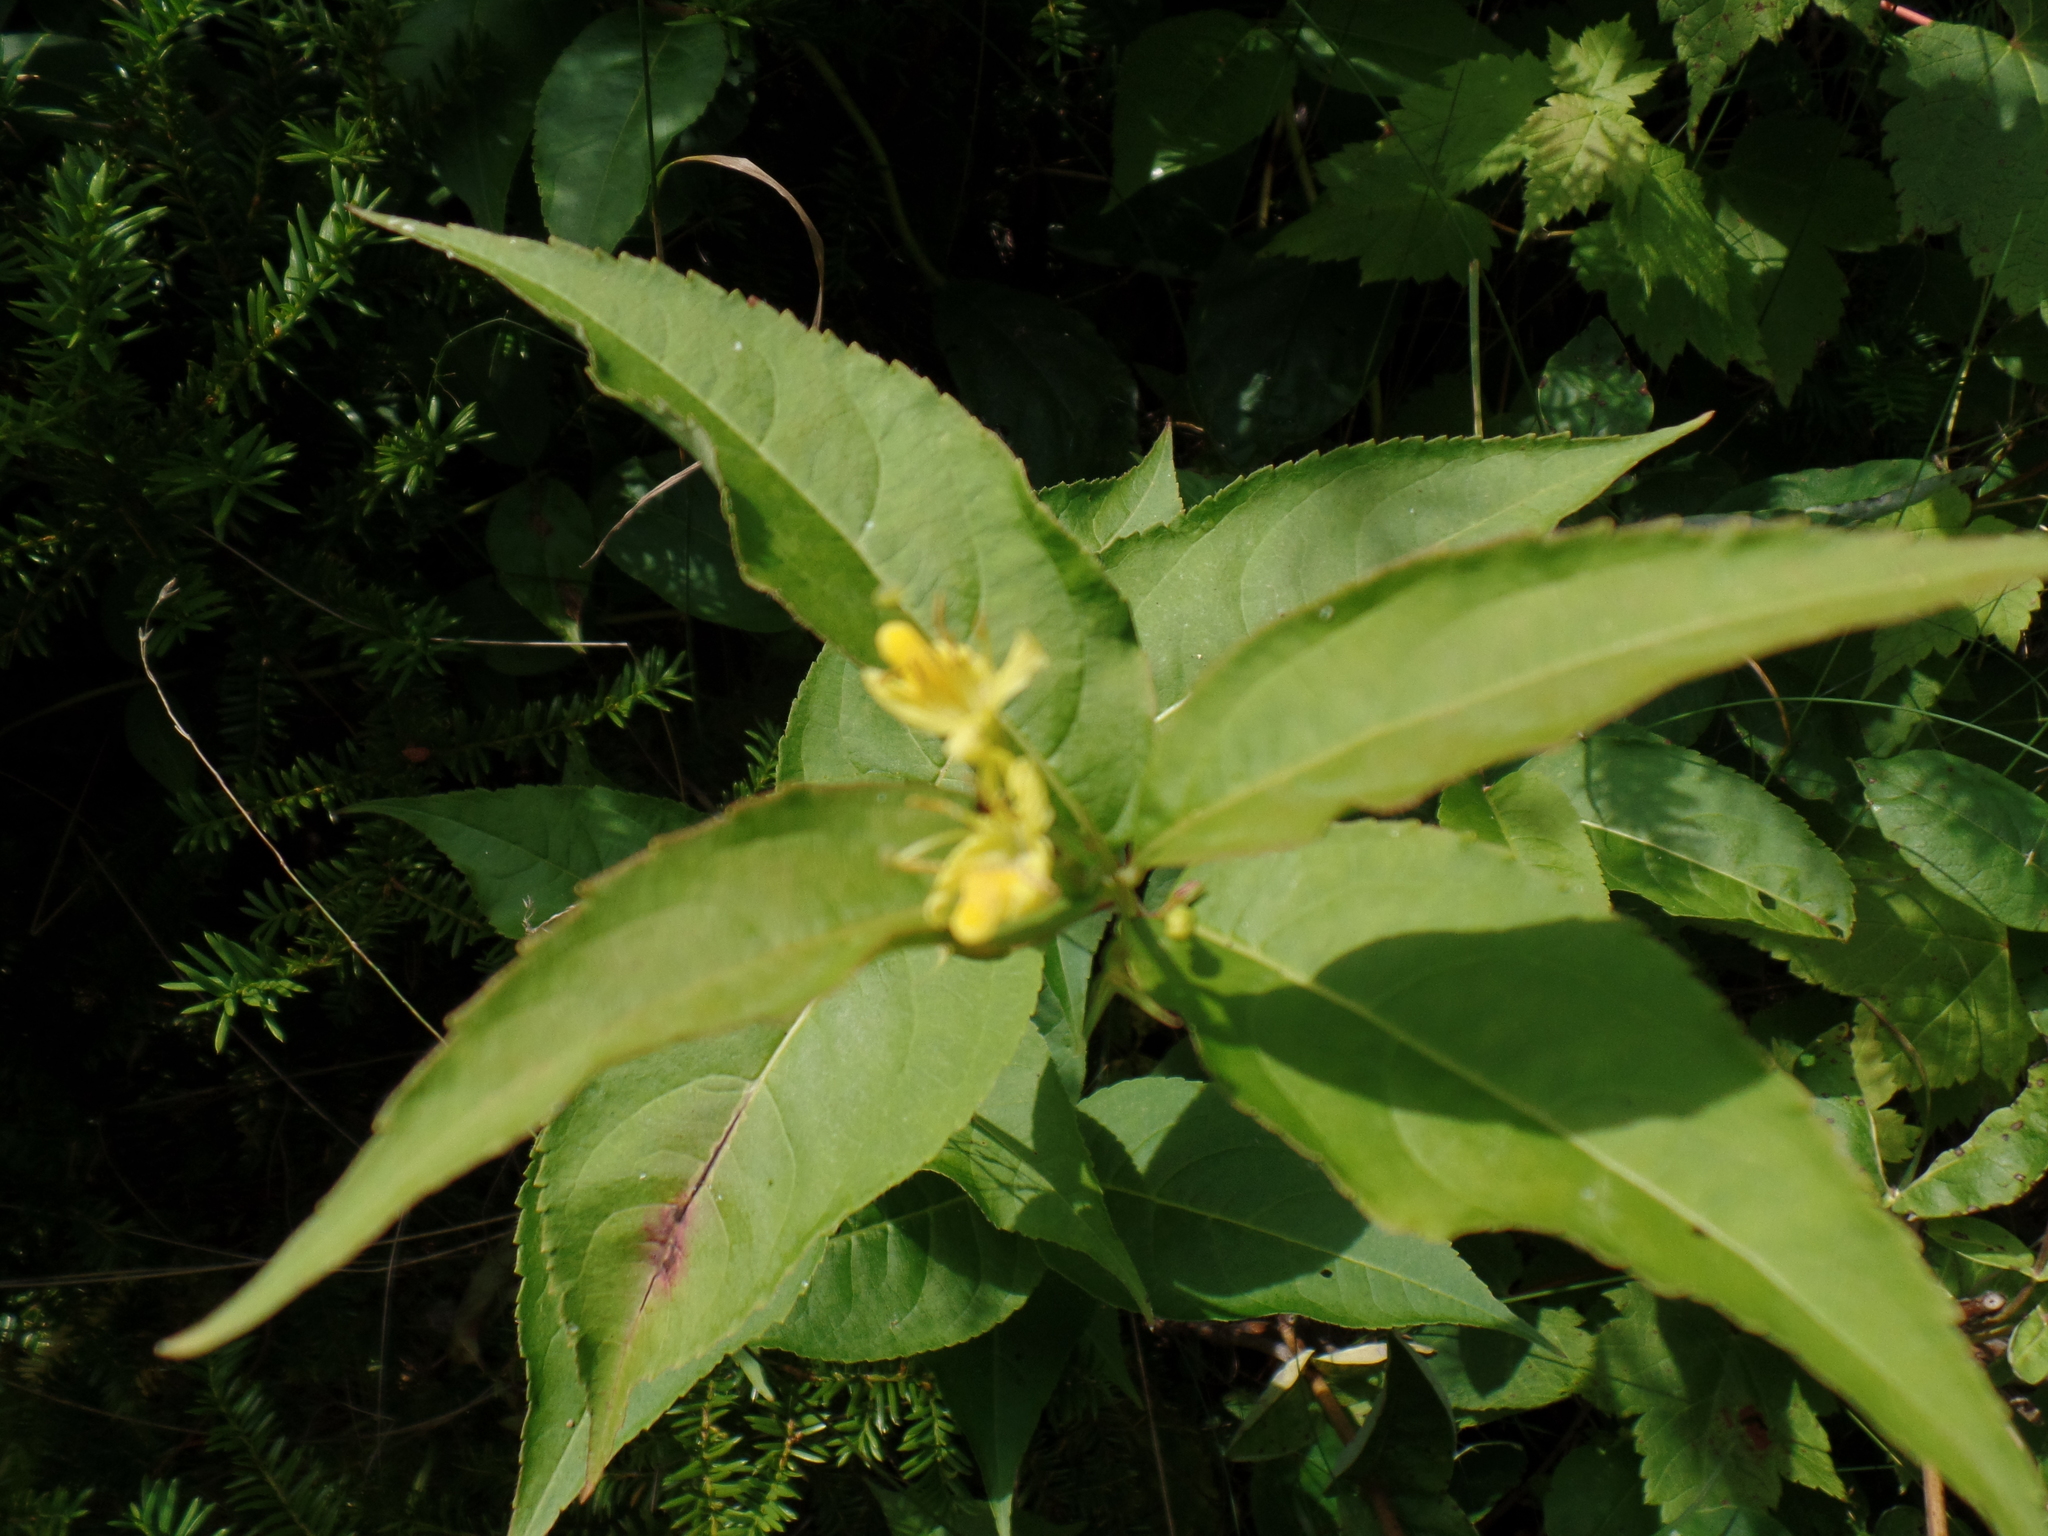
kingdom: Plantae
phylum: Tracheophyta
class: Magnoliopsida
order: Dipsacales
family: Caprifoliaceae
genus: Diervilla
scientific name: Diervilla lonicera
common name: Bush-honeysuckle
